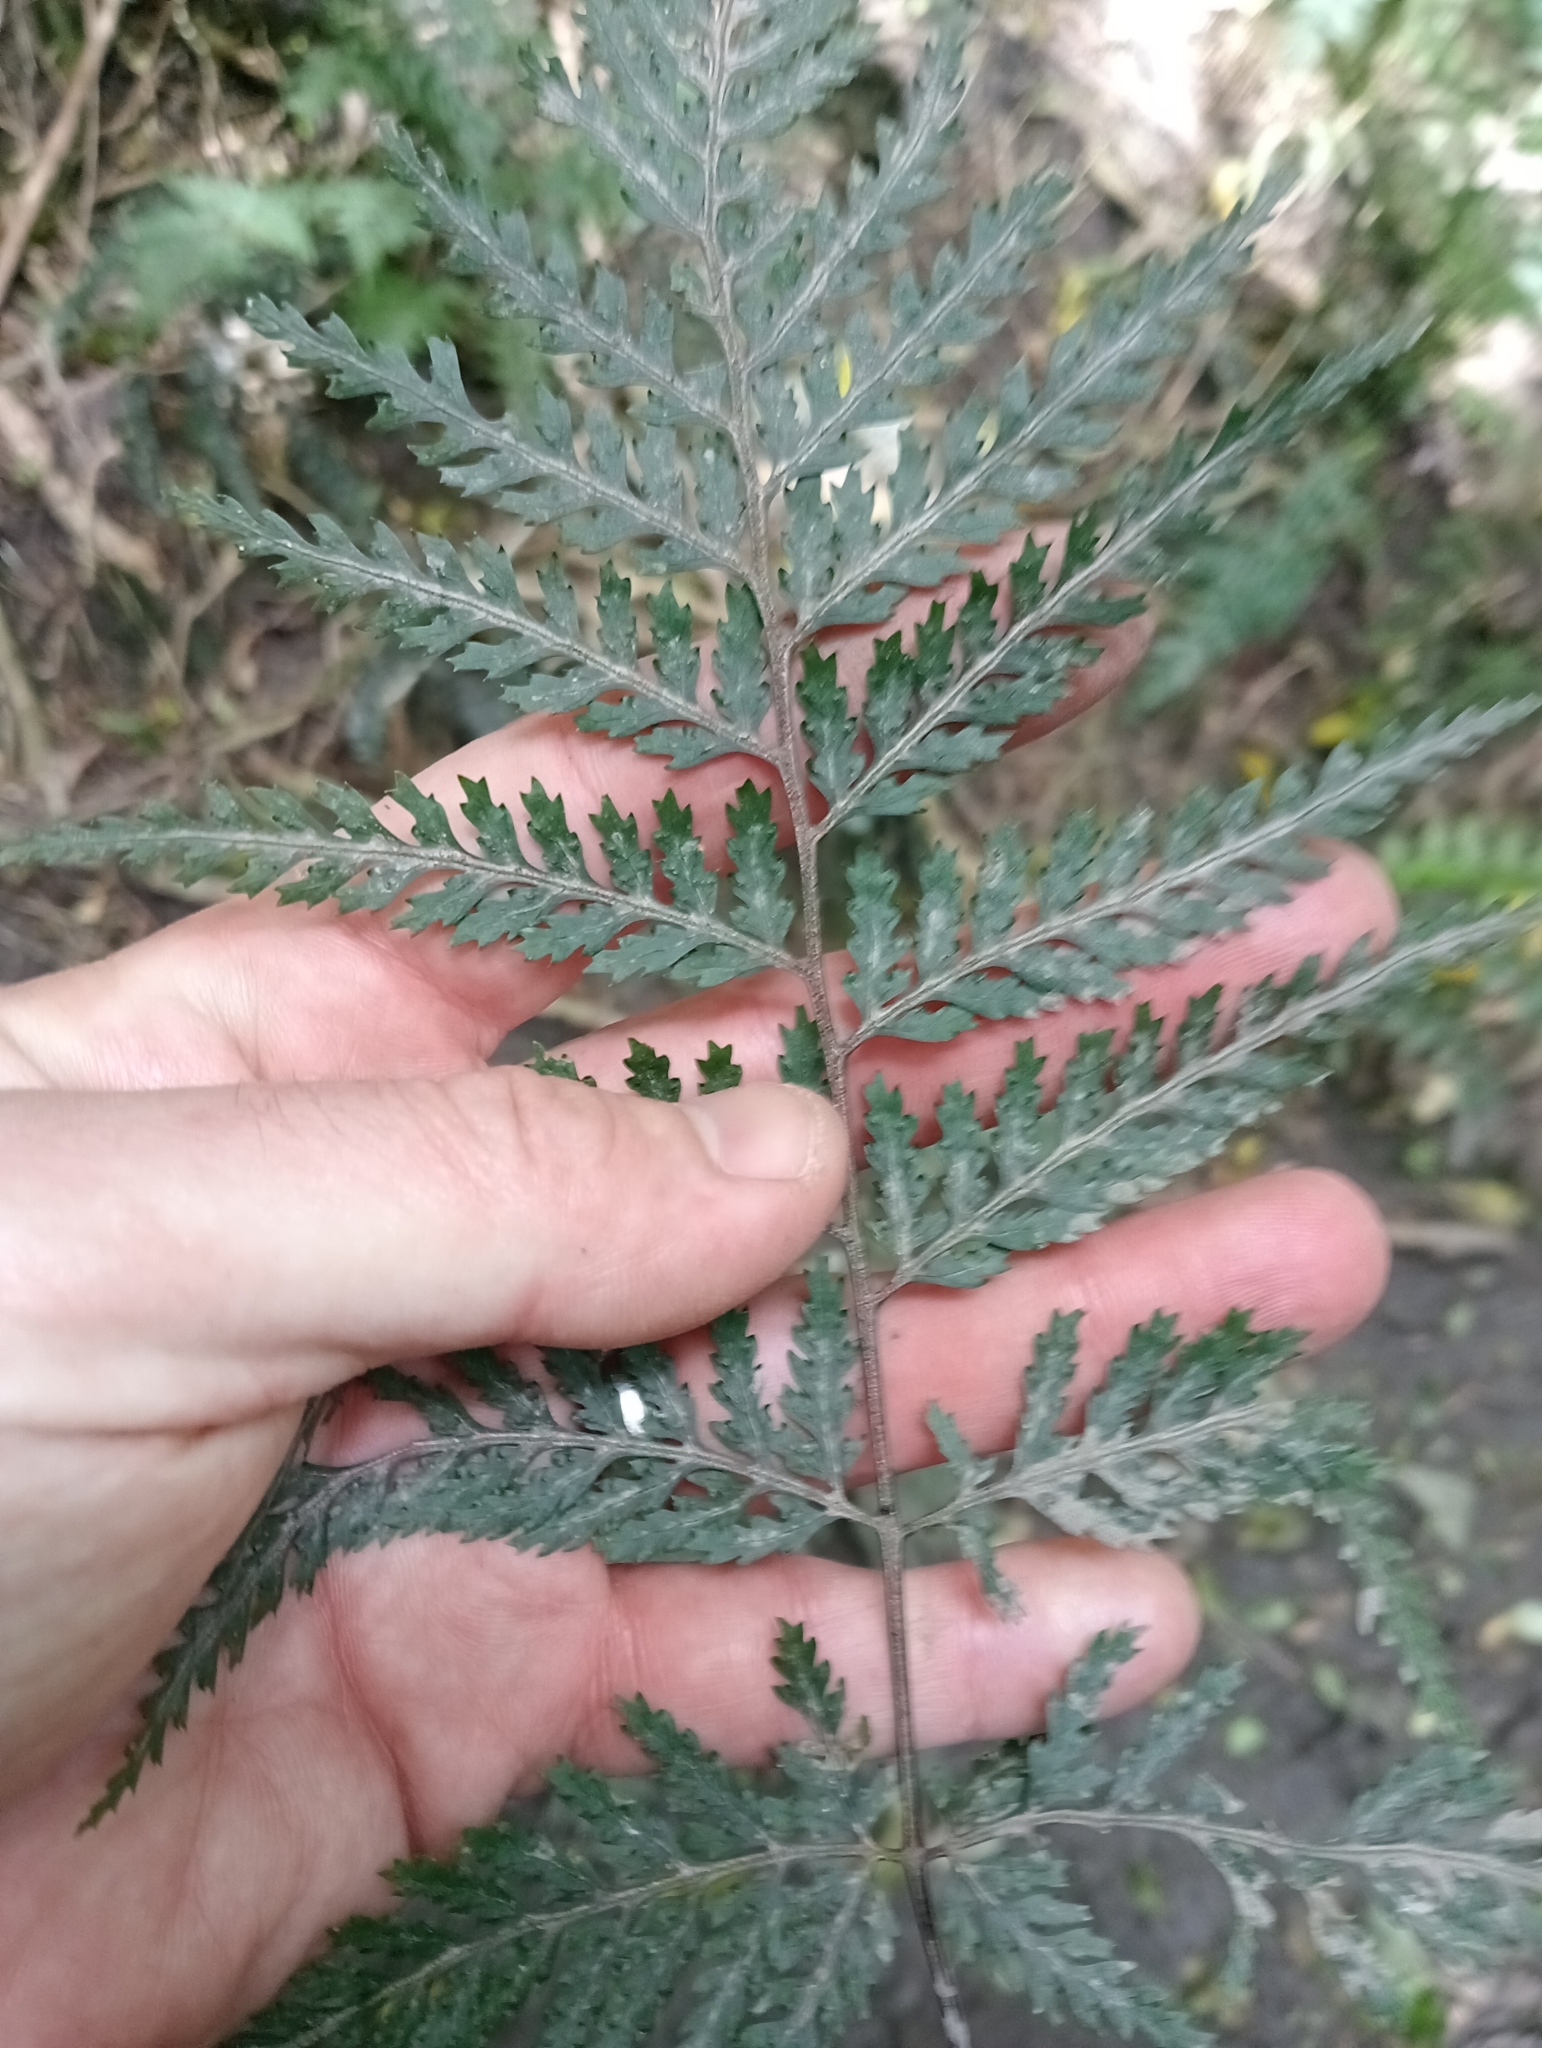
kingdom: Plantae
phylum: Tracheophyta
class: Polypodiopsida
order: Polypodiales
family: Dryopteridaceae
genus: Parapolystichum
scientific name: Parapolystichum glabellum
